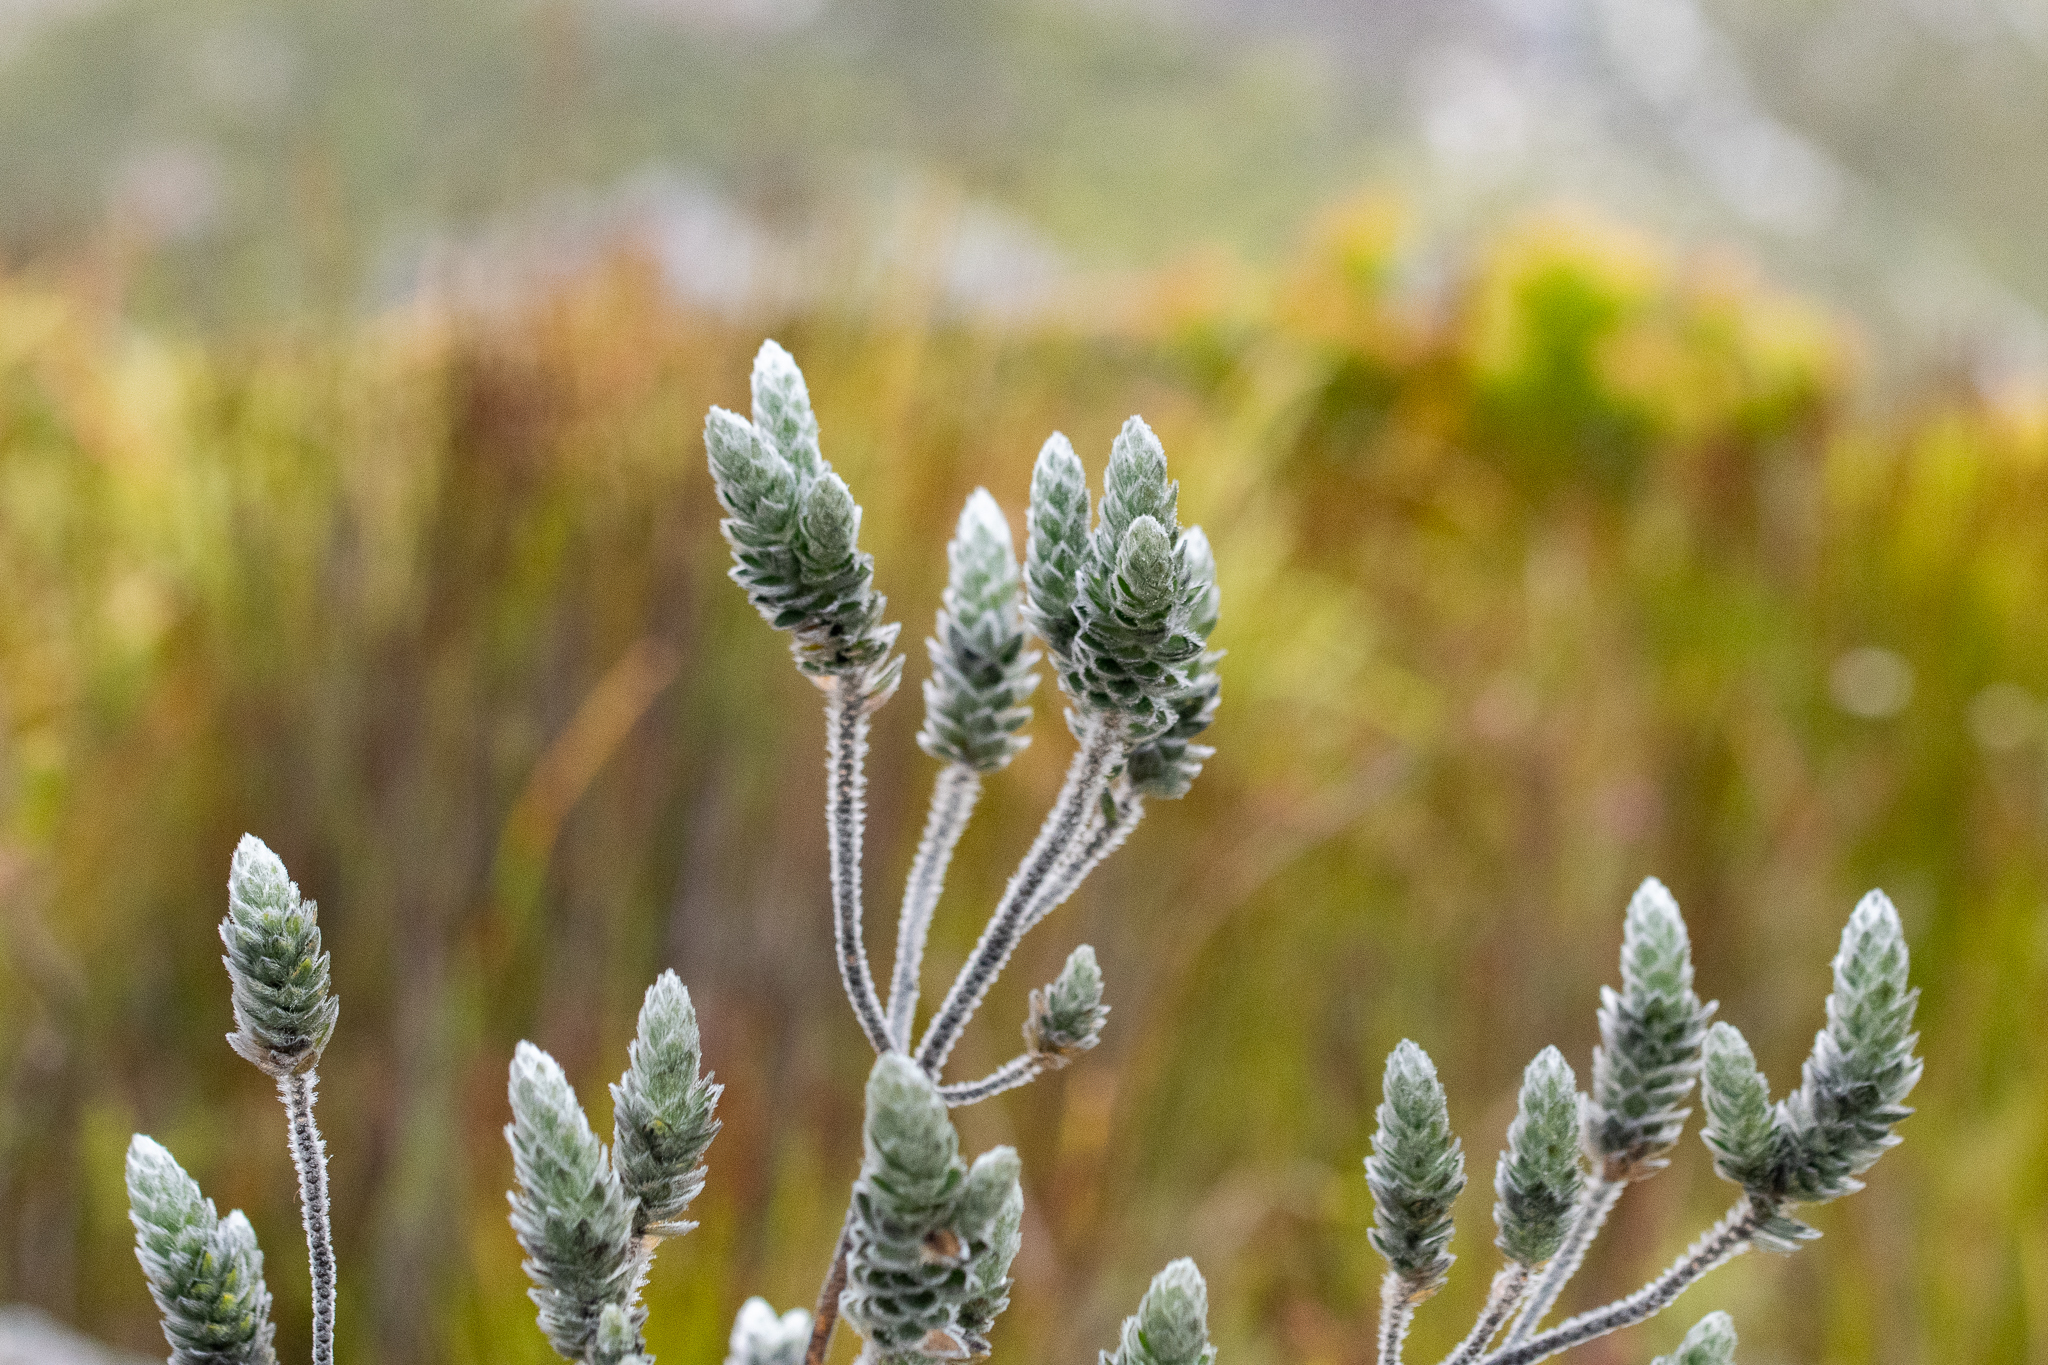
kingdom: Plantae
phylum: Tracheophyta
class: Magnoliopsida
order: Fabales
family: Fabaceae
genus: Liparia
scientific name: Liparia vestita
